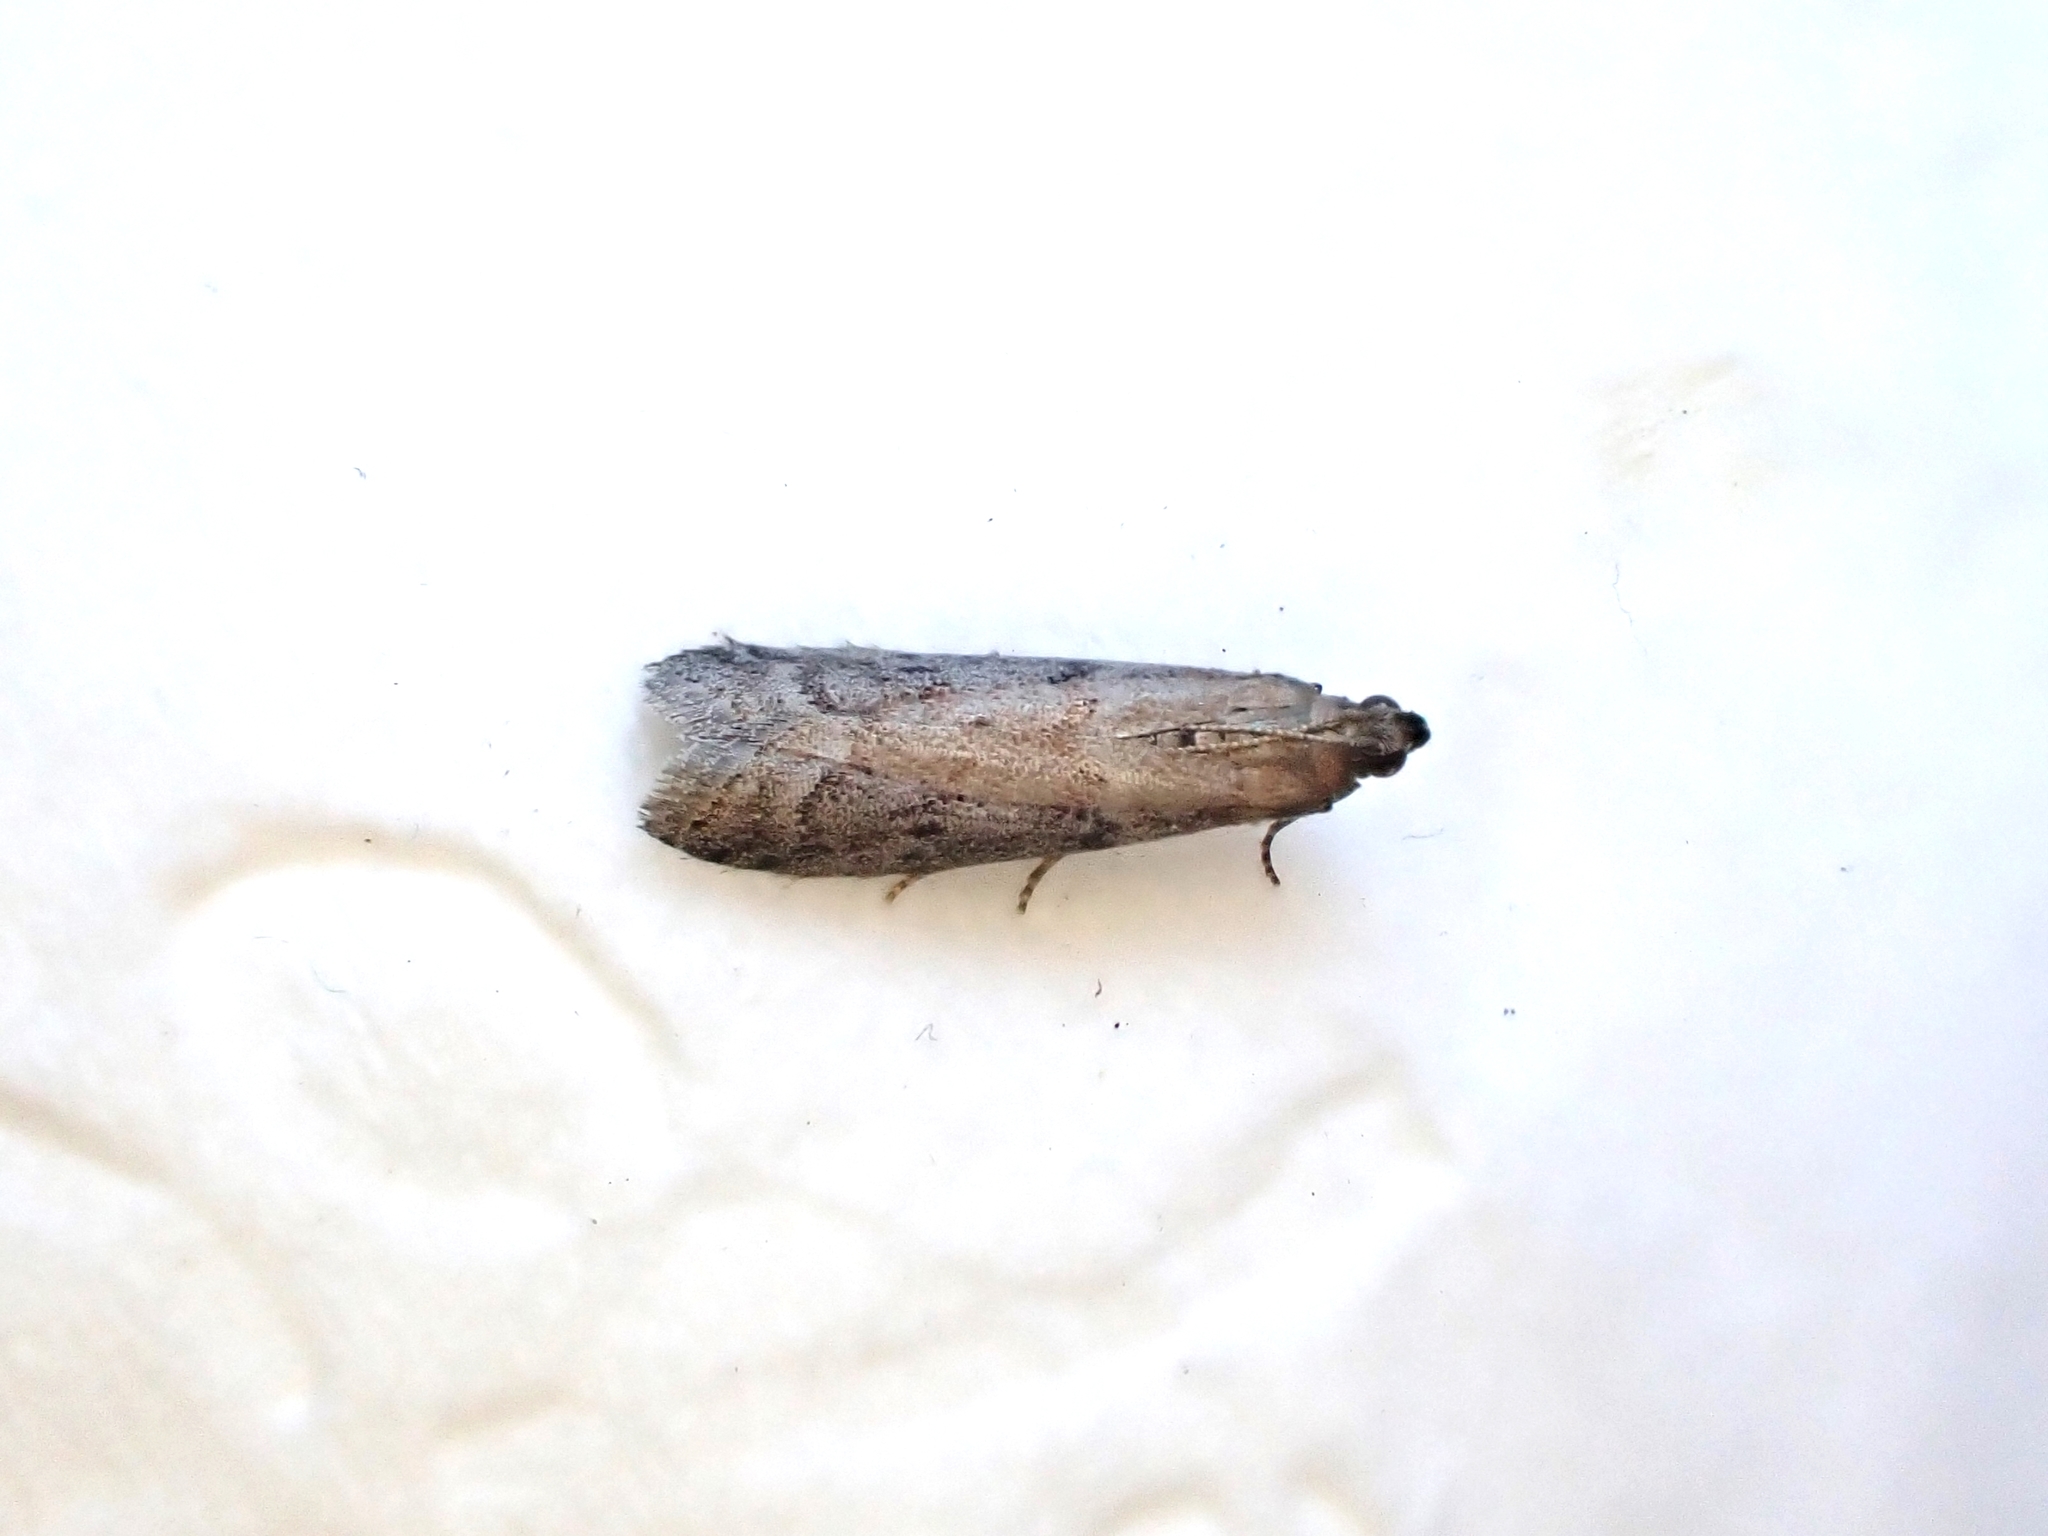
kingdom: Animalia
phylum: Arthropoda
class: Insecta
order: Lepidoptera
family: Pyralidae
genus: Ephestia
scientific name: Ephestia elutella
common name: Cacao moth
